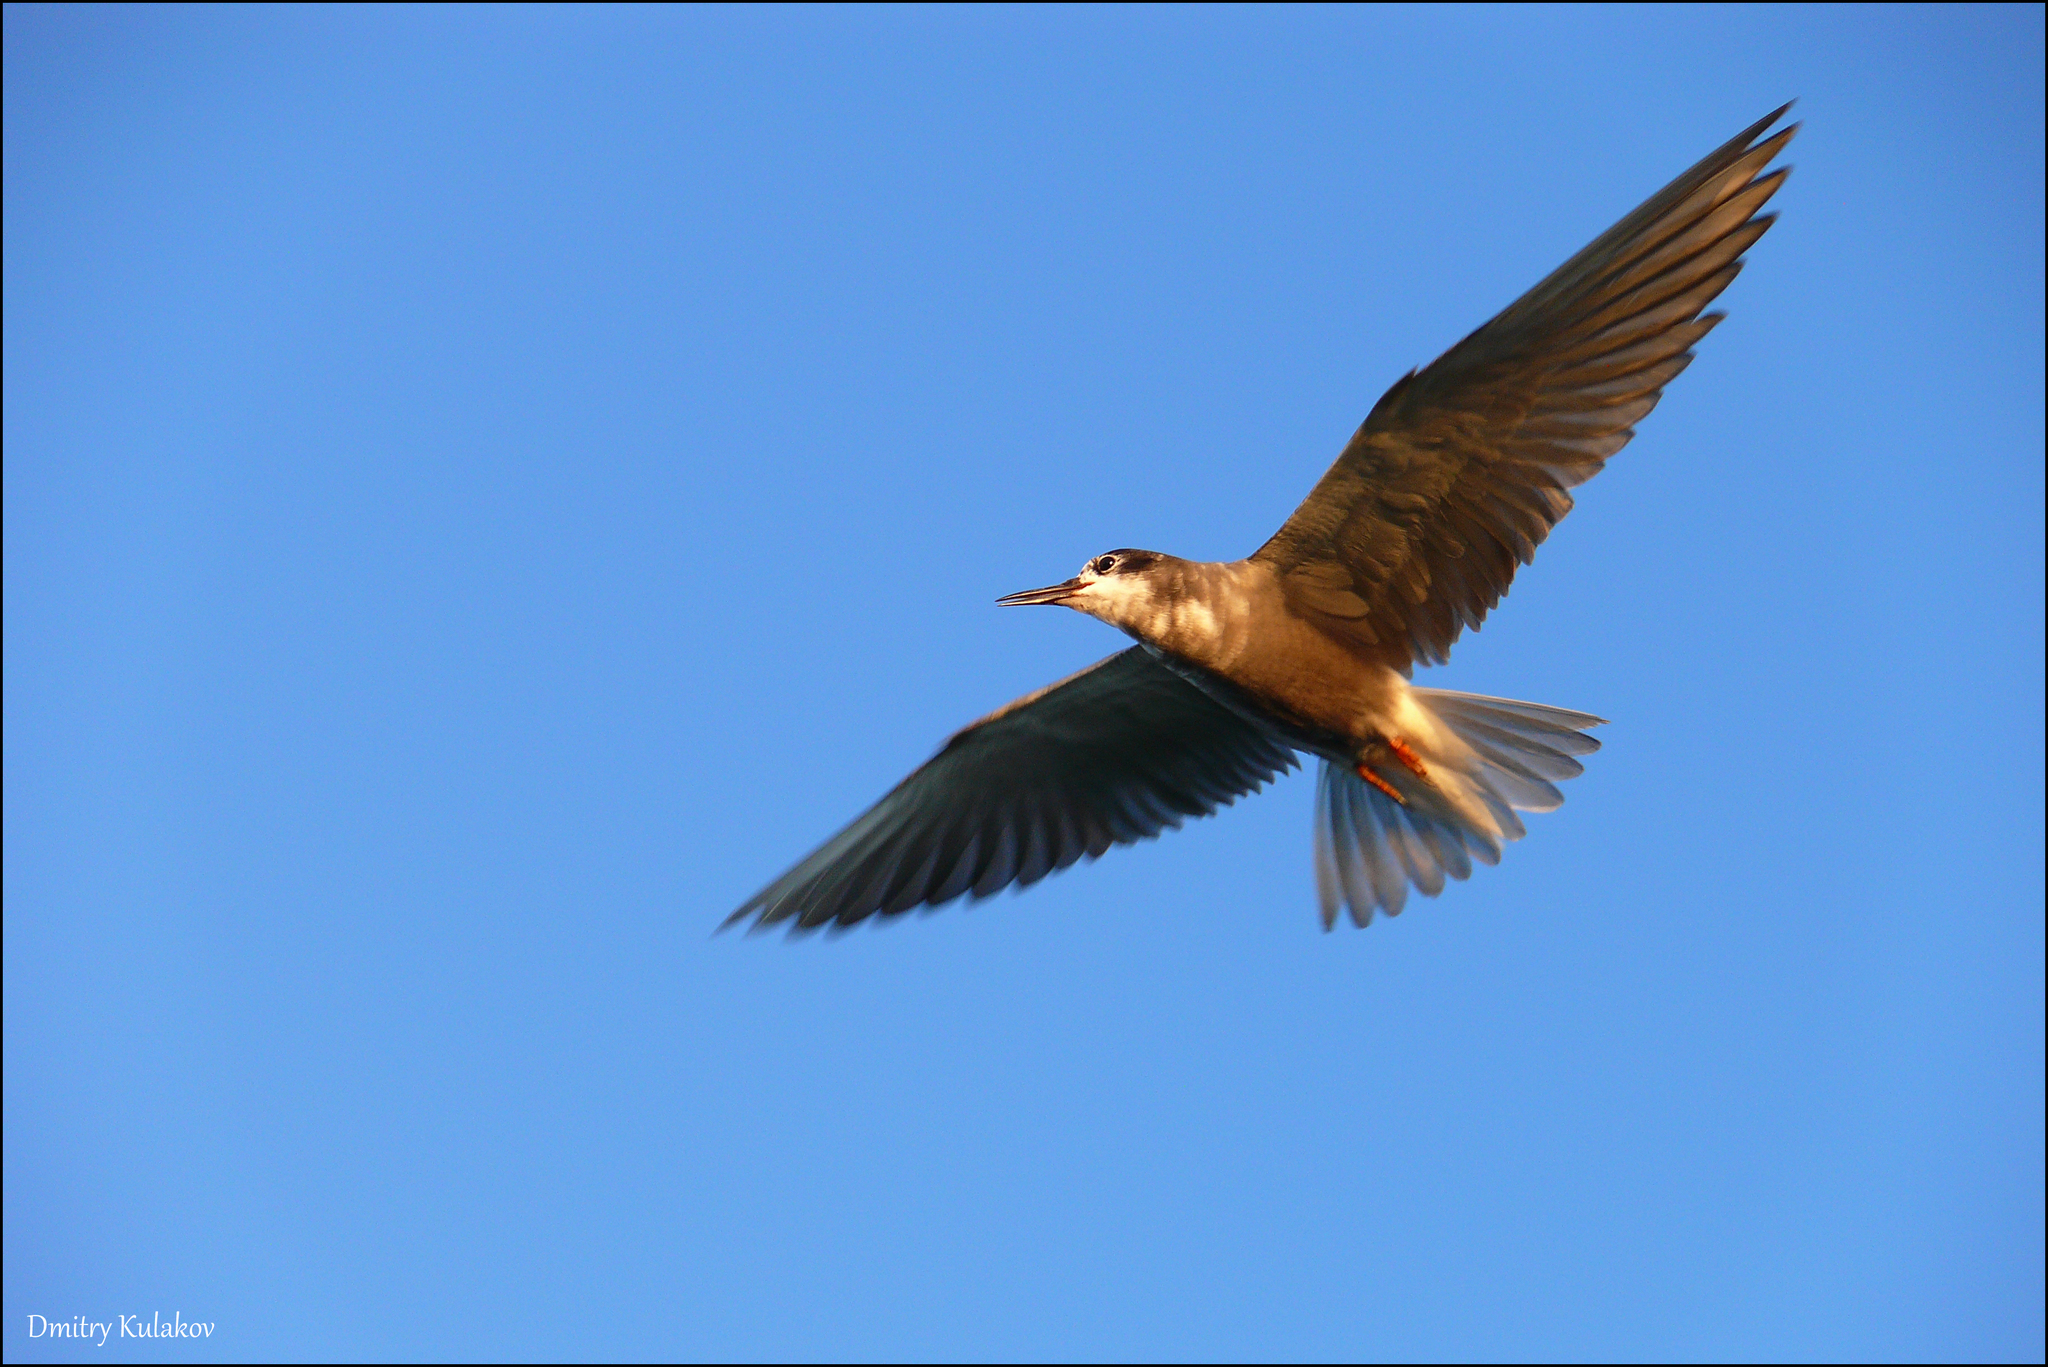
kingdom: Animalia
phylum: Chordata
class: Aves
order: Charadriiformes
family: Laridae
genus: Chlidonias
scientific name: Chlidonias niger
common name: Black tern
